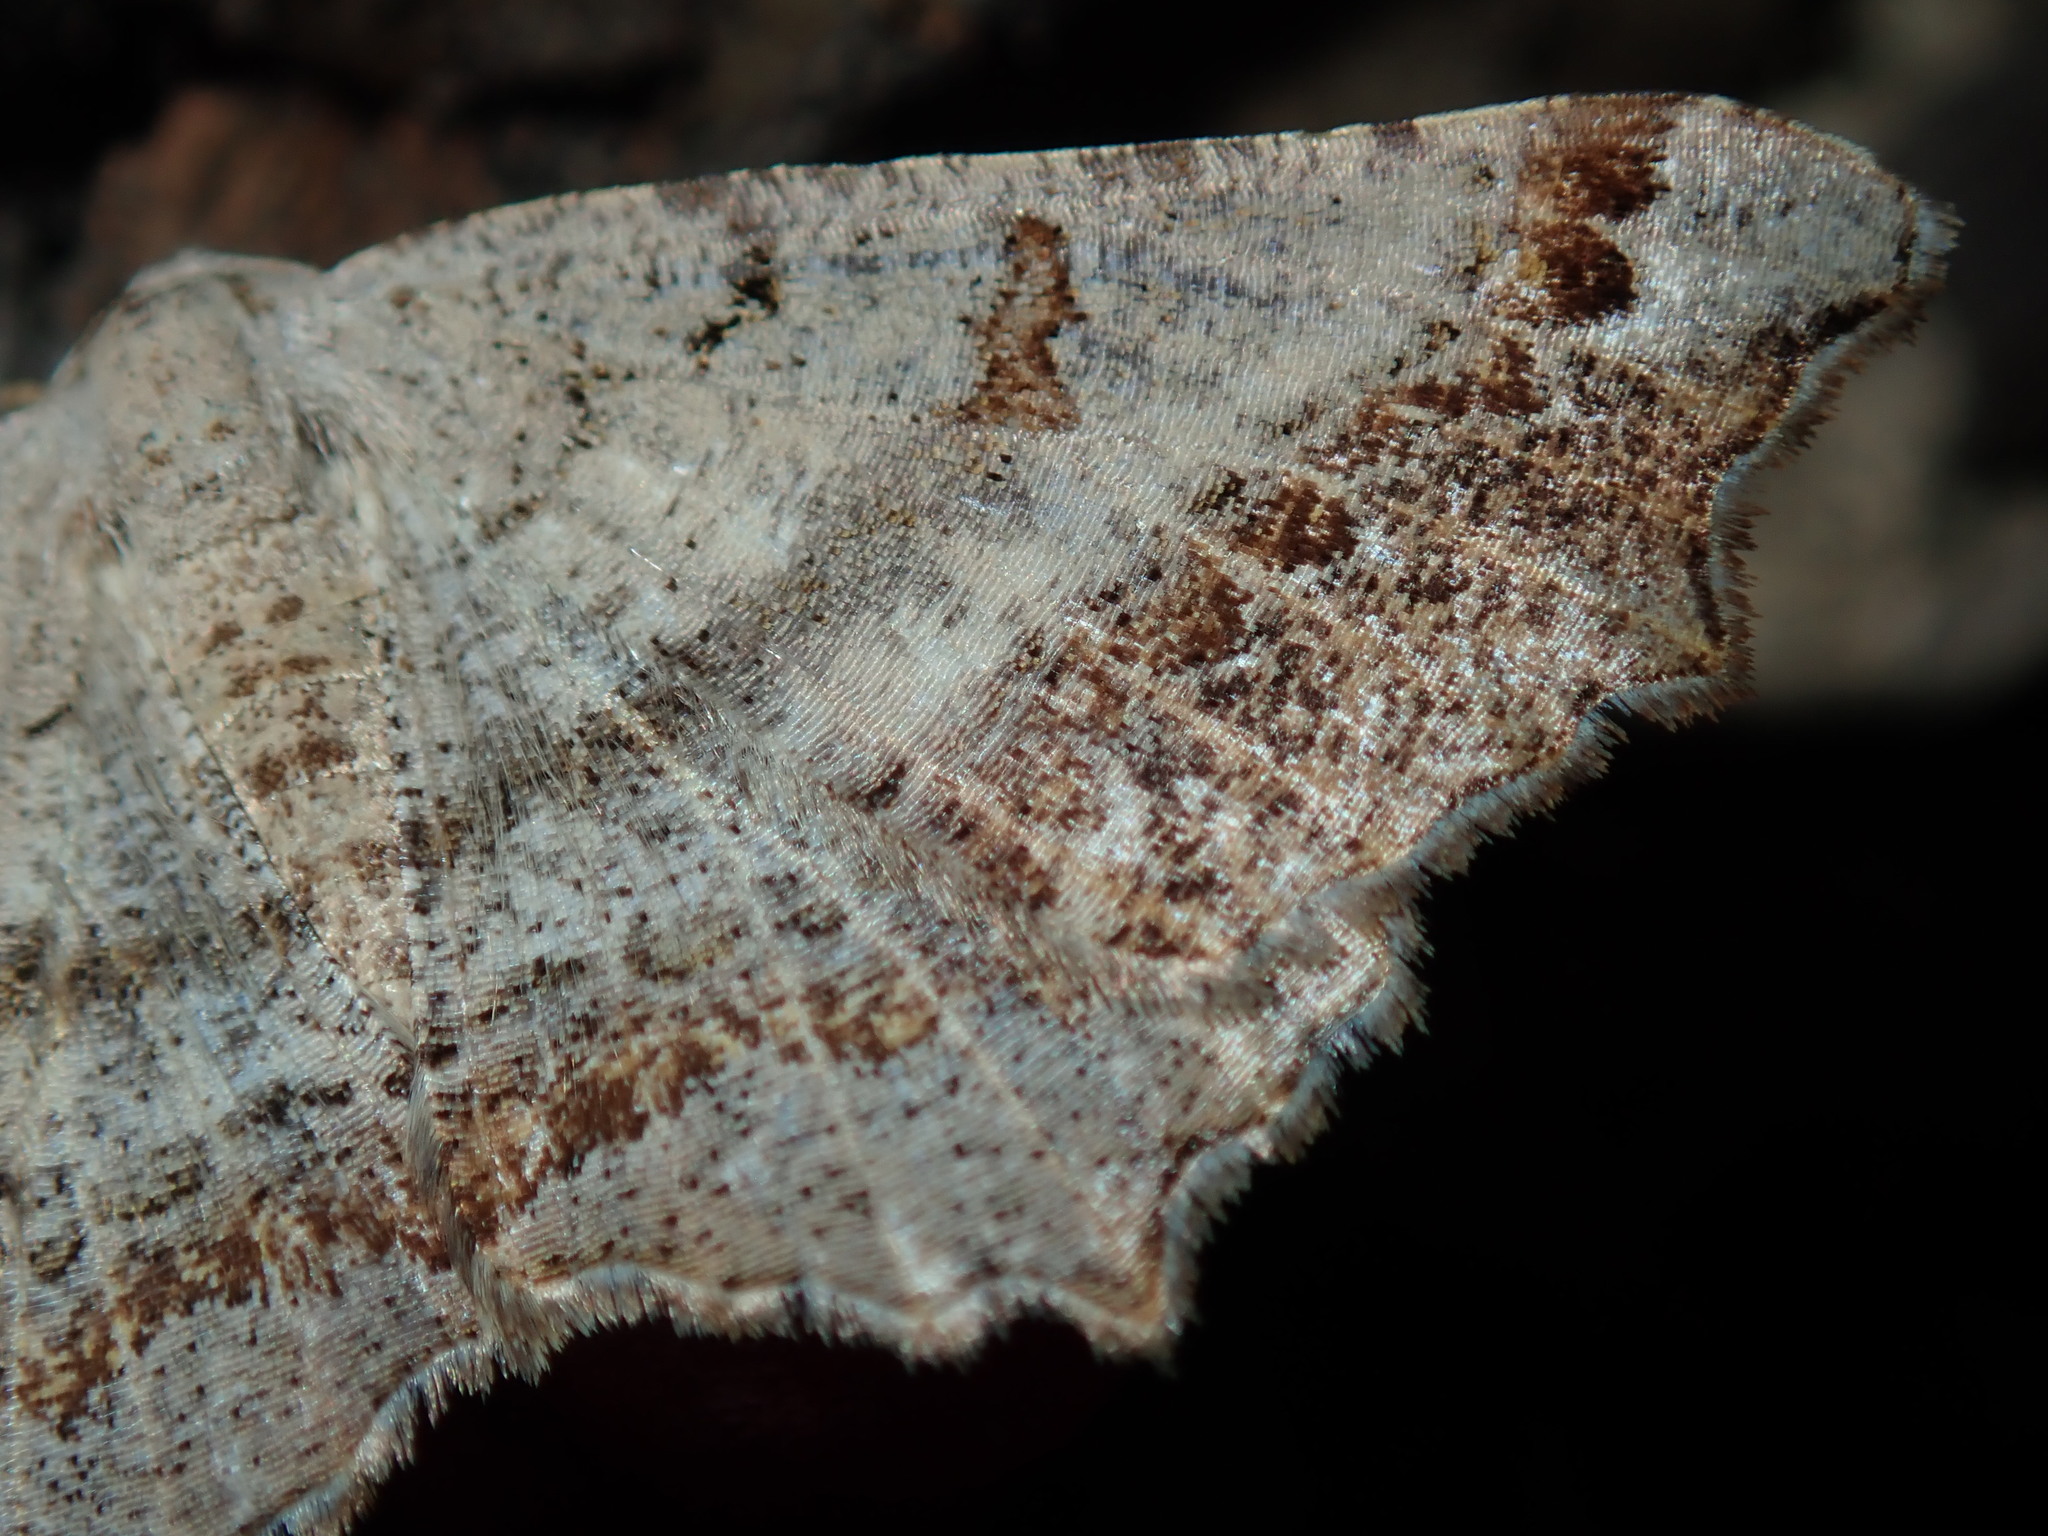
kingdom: Animalia
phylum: Arthropoda
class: Insecta
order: Lepidoptera
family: Geometridae
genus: Dissomorphia
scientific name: Dissomorphia australiaria
